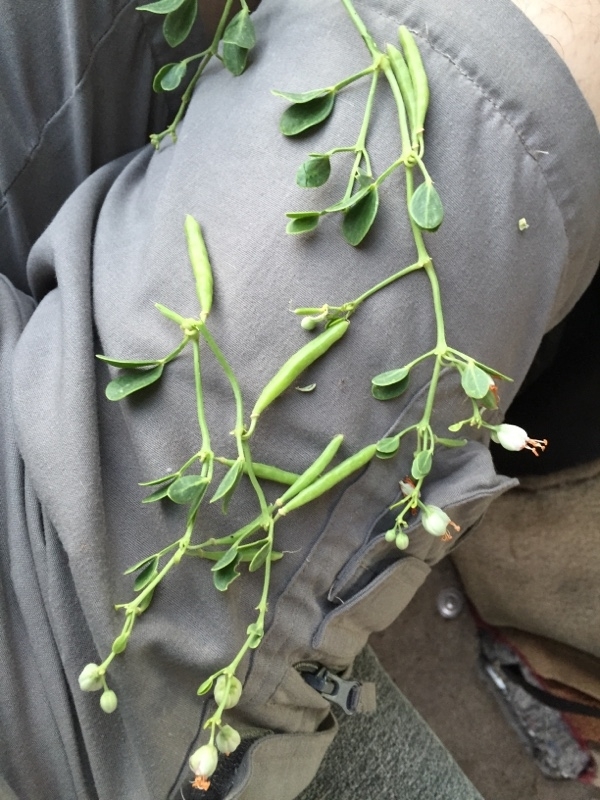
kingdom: Plantae
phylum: Tracheophyta
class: Magnoliopsida
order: Zygophyllales
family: Zygophyllaceae
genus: Zygophyllum
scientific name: Zygophyllum fabago
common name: Syrian beancaper
